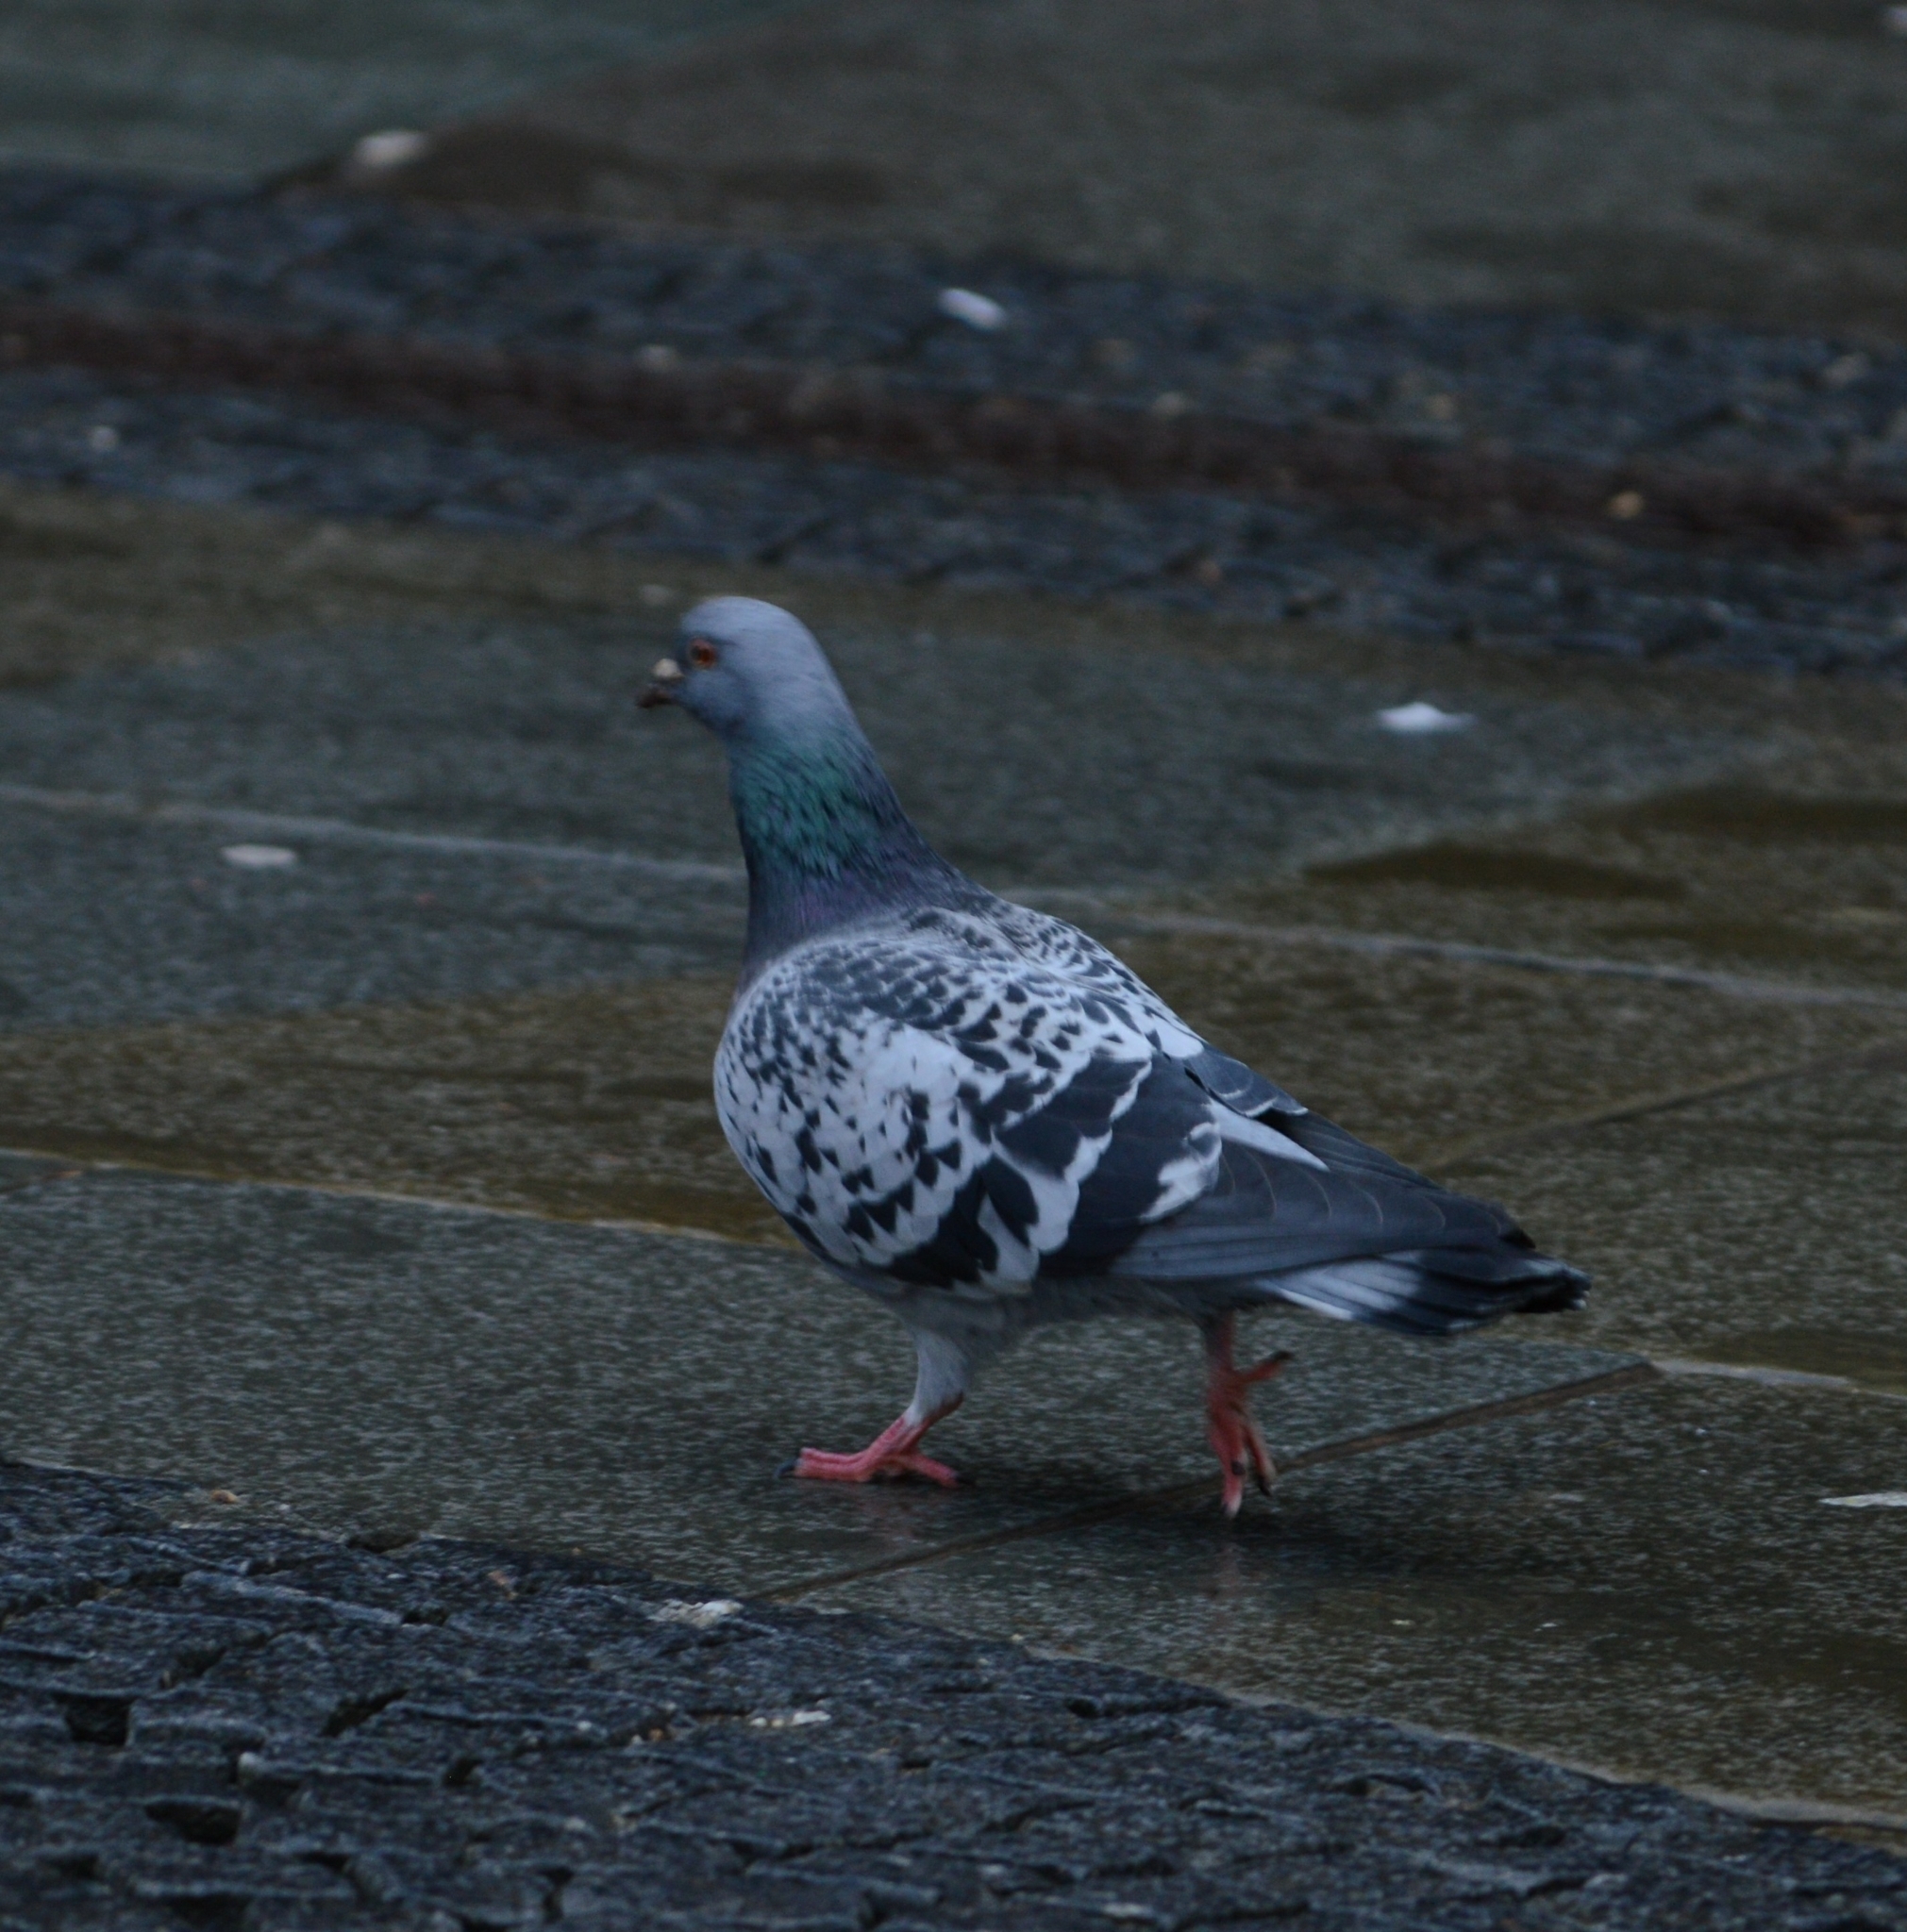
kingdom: Animalia
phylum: Chordata
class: Aves
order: Columbiformes
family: Columbidae
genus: Columba
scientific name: Columba livia
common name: Rock pigeon
